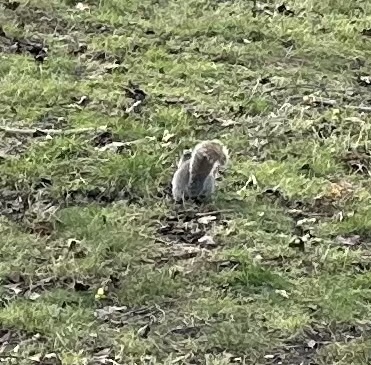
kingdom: Animalia
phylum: Chordata
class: Mammalia
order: Rodentia
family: Sciuridae
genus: Sciurus
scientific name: Sciurus carolinensis
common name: Eastern gray squirrel
